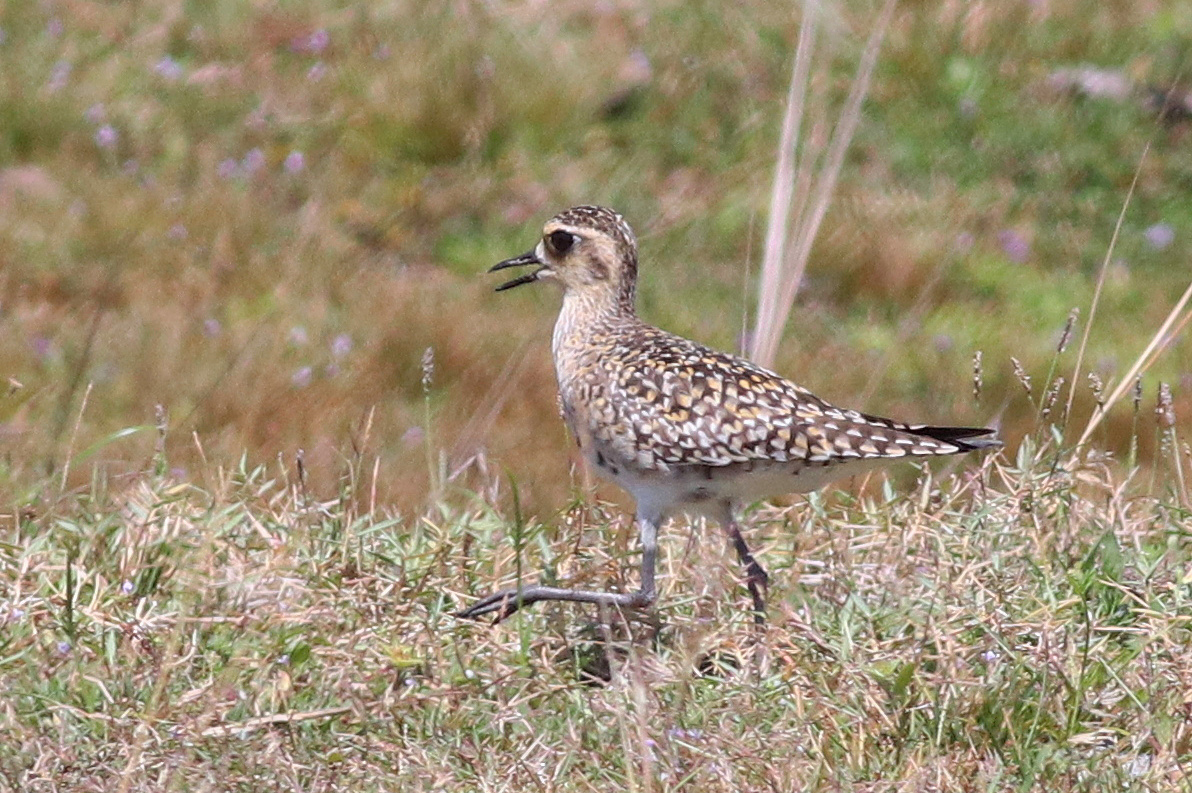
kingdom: Animalia
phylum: Chordata
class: Aves
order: Charadriiformes
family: Charadriidae
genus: Pluvialis
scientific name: Pluvialis fulva
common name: Pacific golden plover
